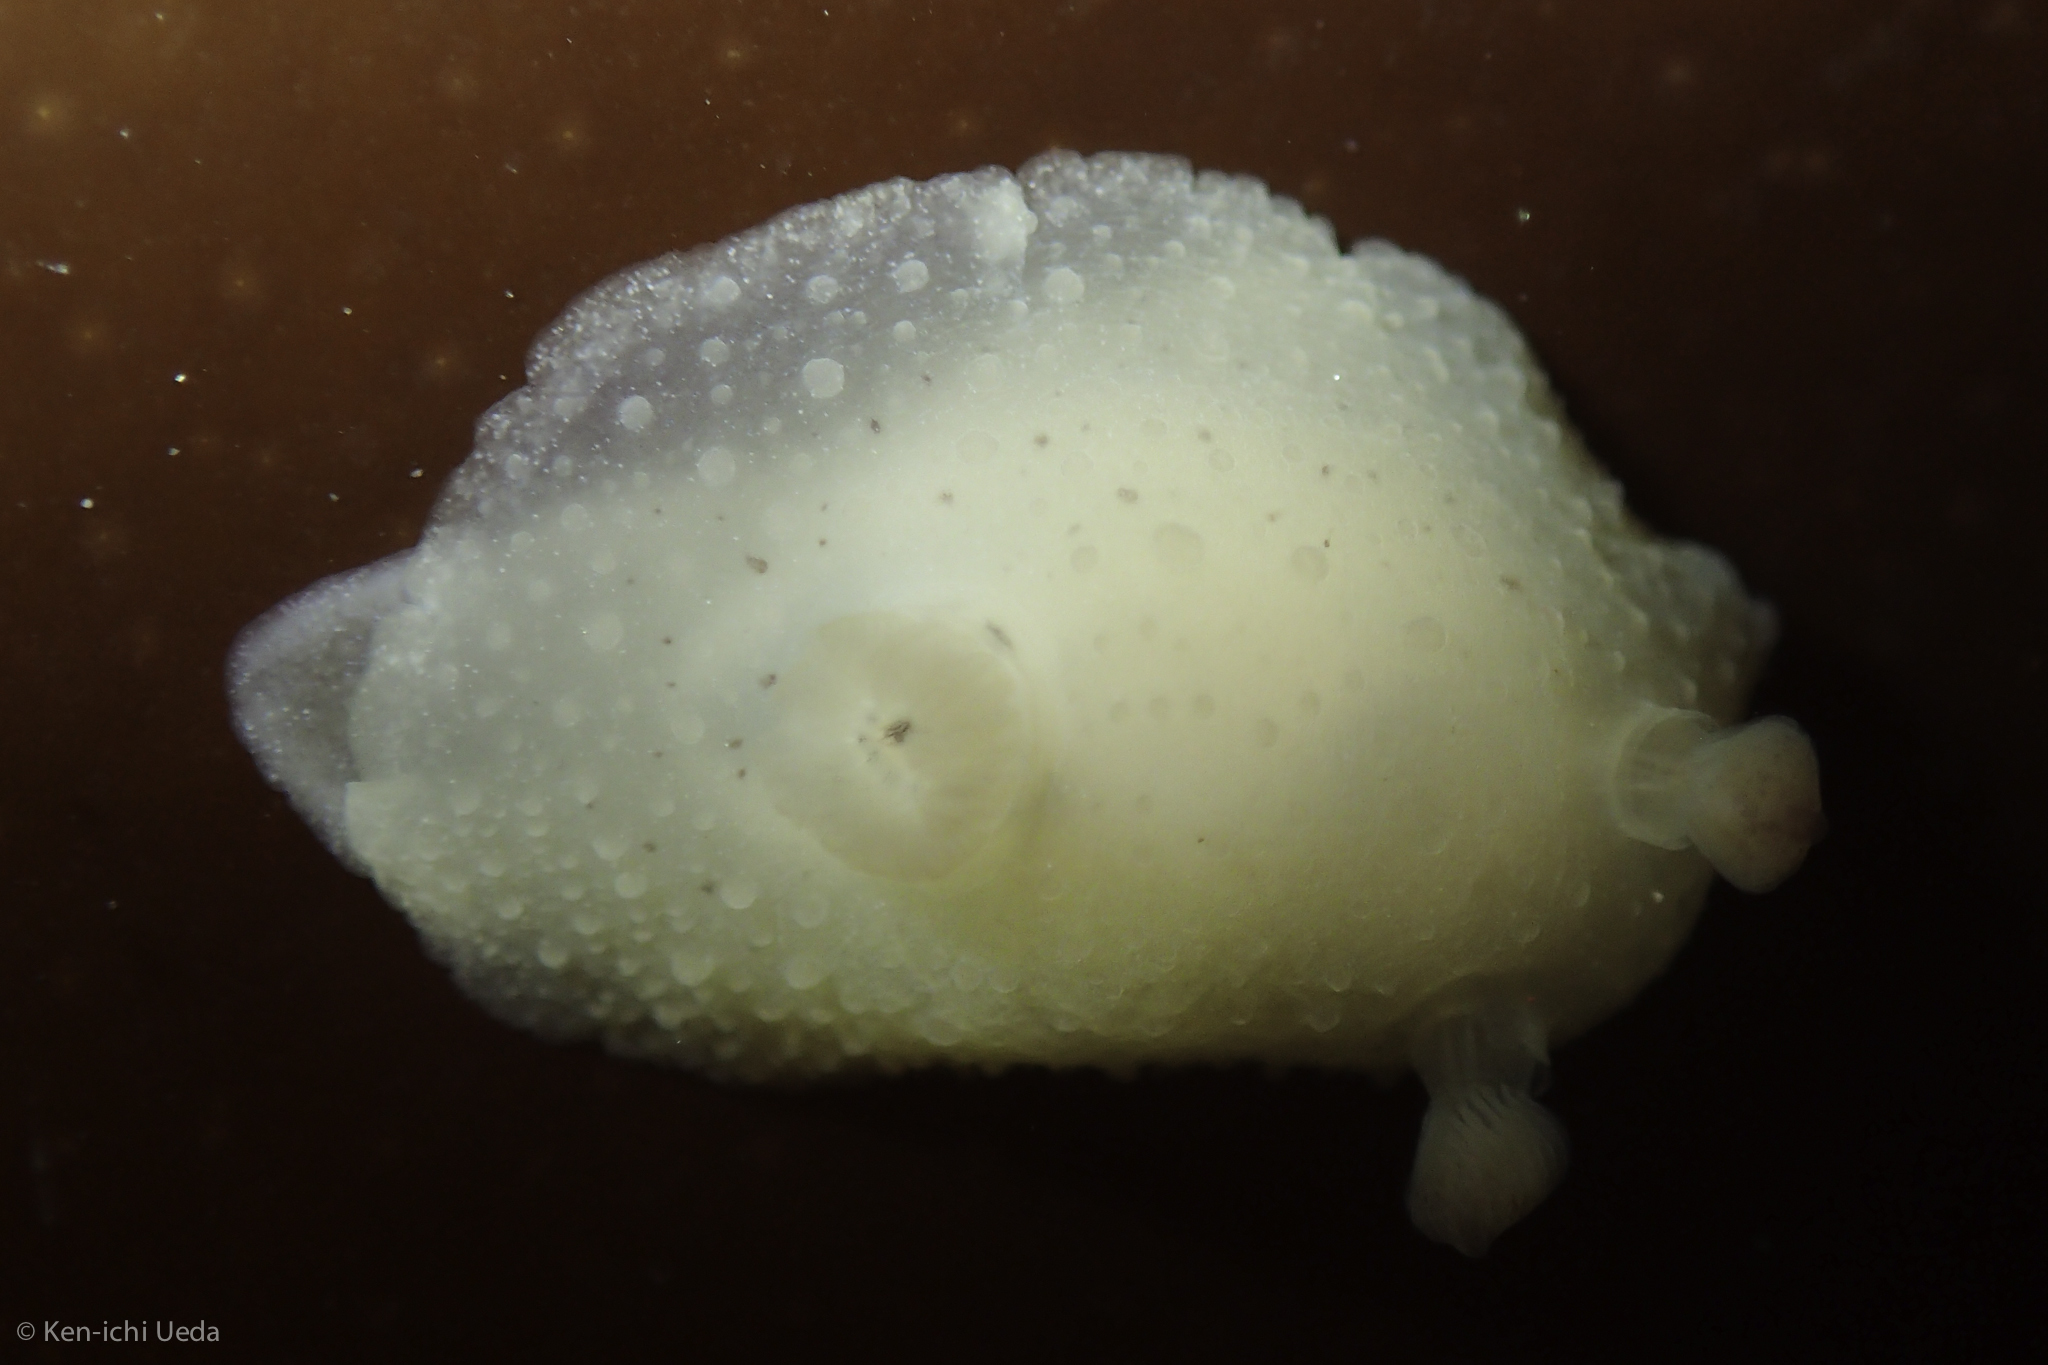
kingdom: Animalia
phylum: Mollusca
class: Gastropoda
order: Nudibranchia
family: Actinocyclidae
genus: Hallaxa
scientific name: Hallaxa chani
